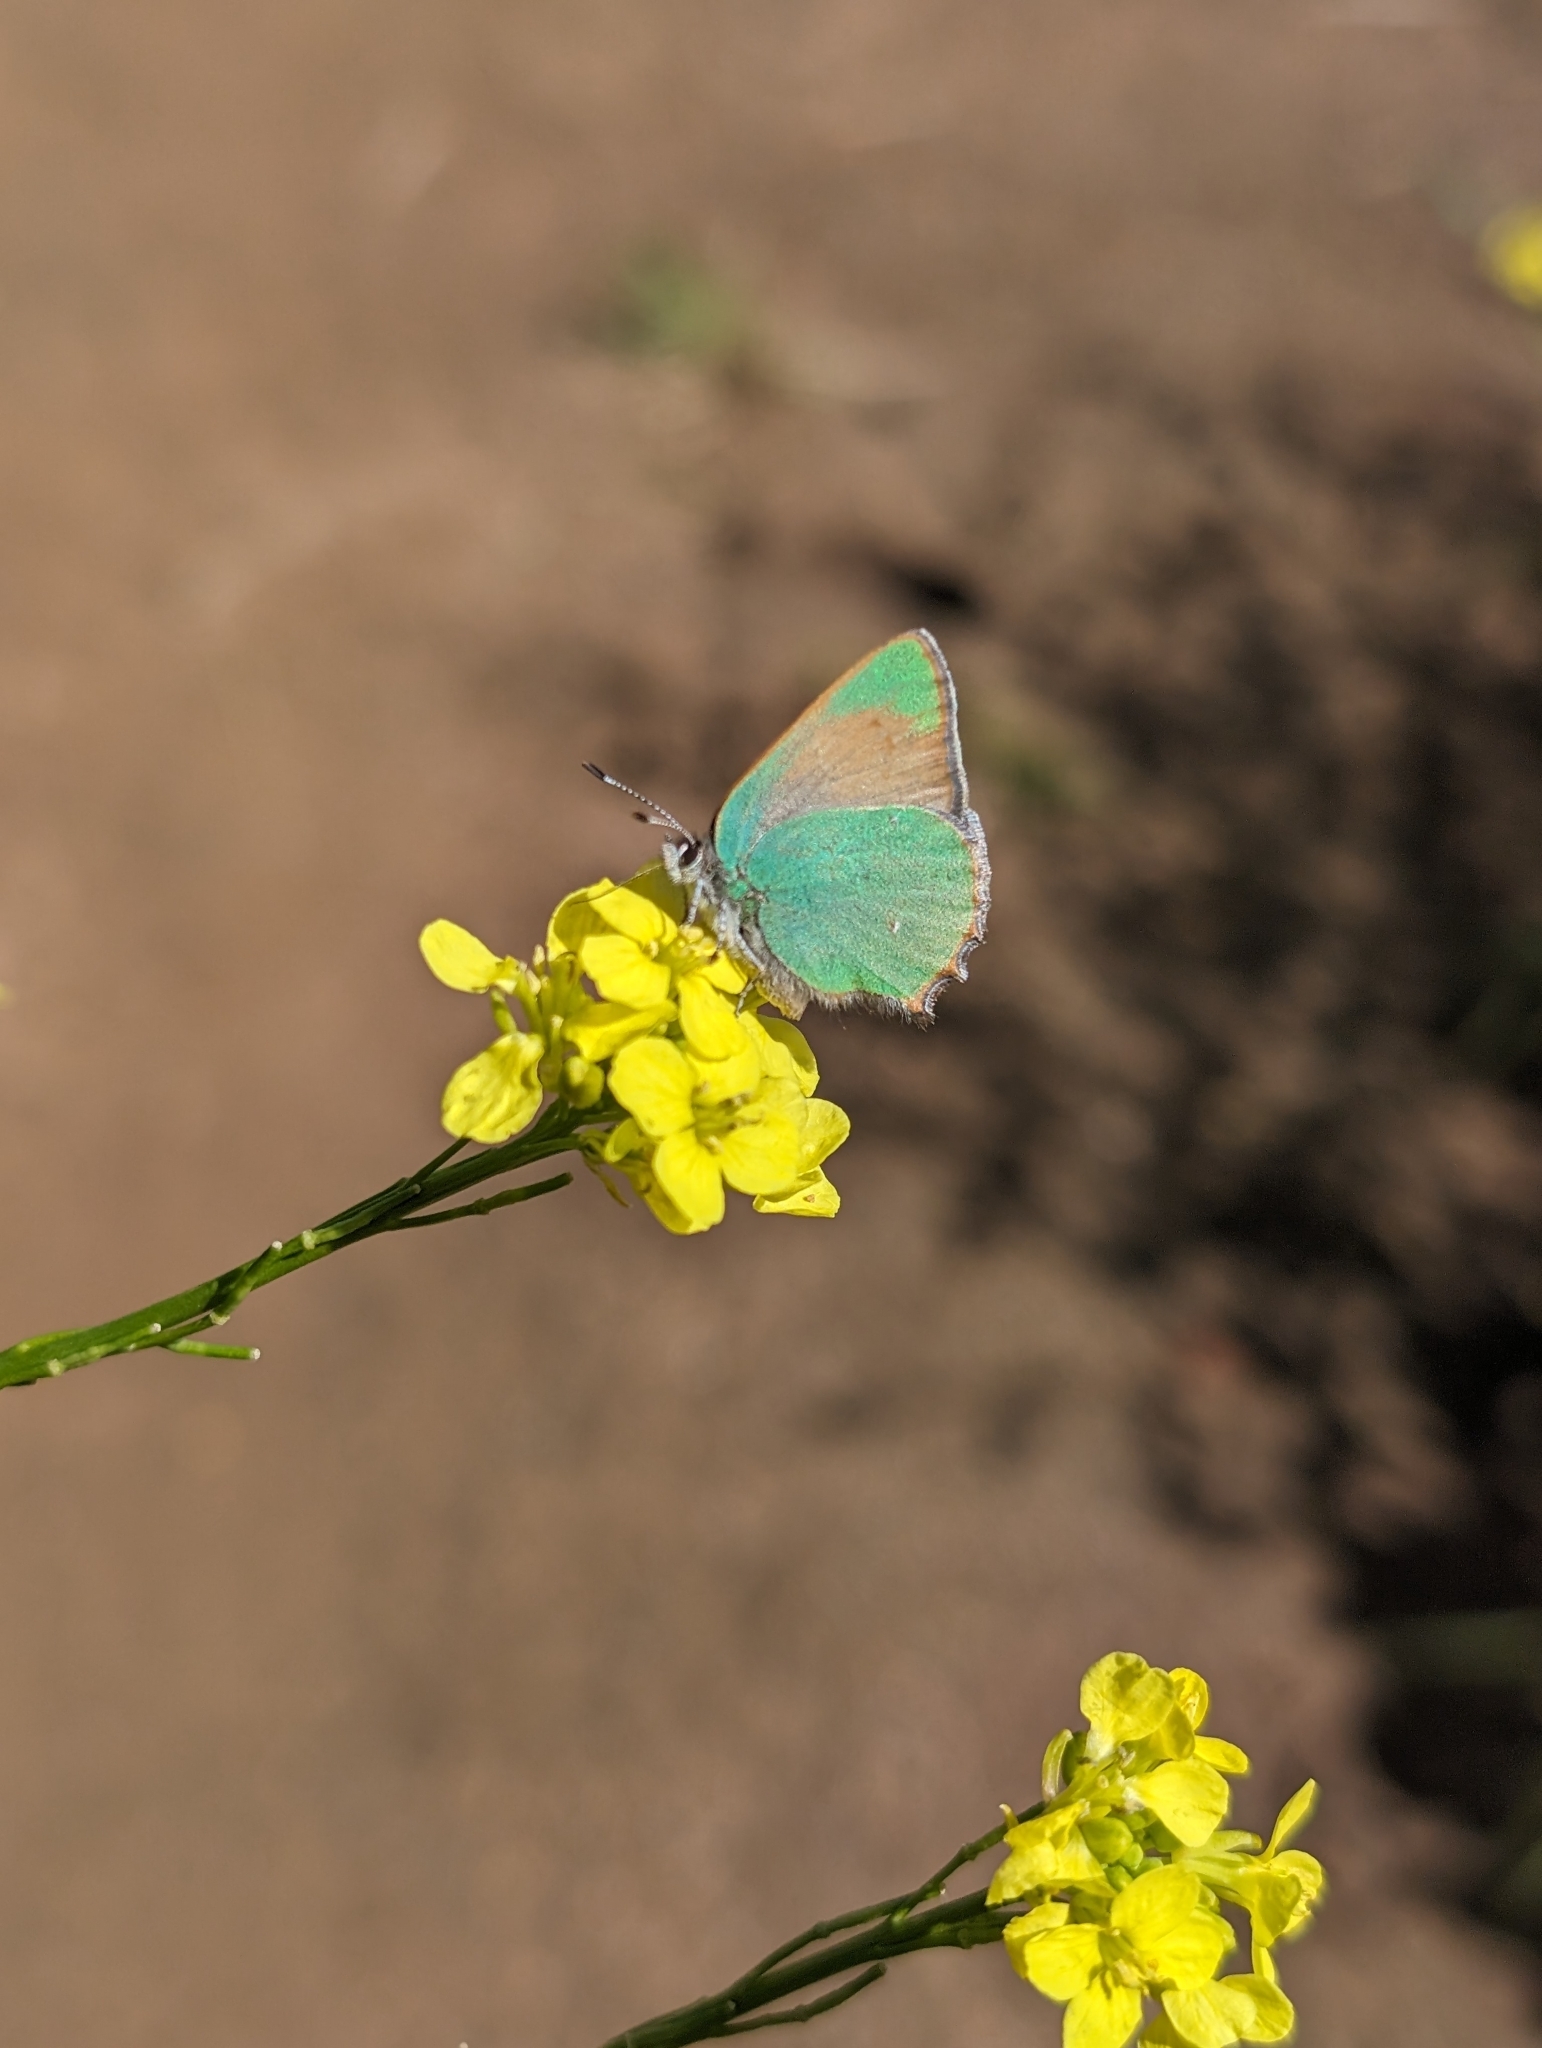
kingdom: Animalia
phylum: Arthropoda
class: Insecta
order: Lepidoptera
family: Lycaenidae
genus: Callophrys
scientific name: Callophrys dumetorum
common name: Bramble hairstreak
